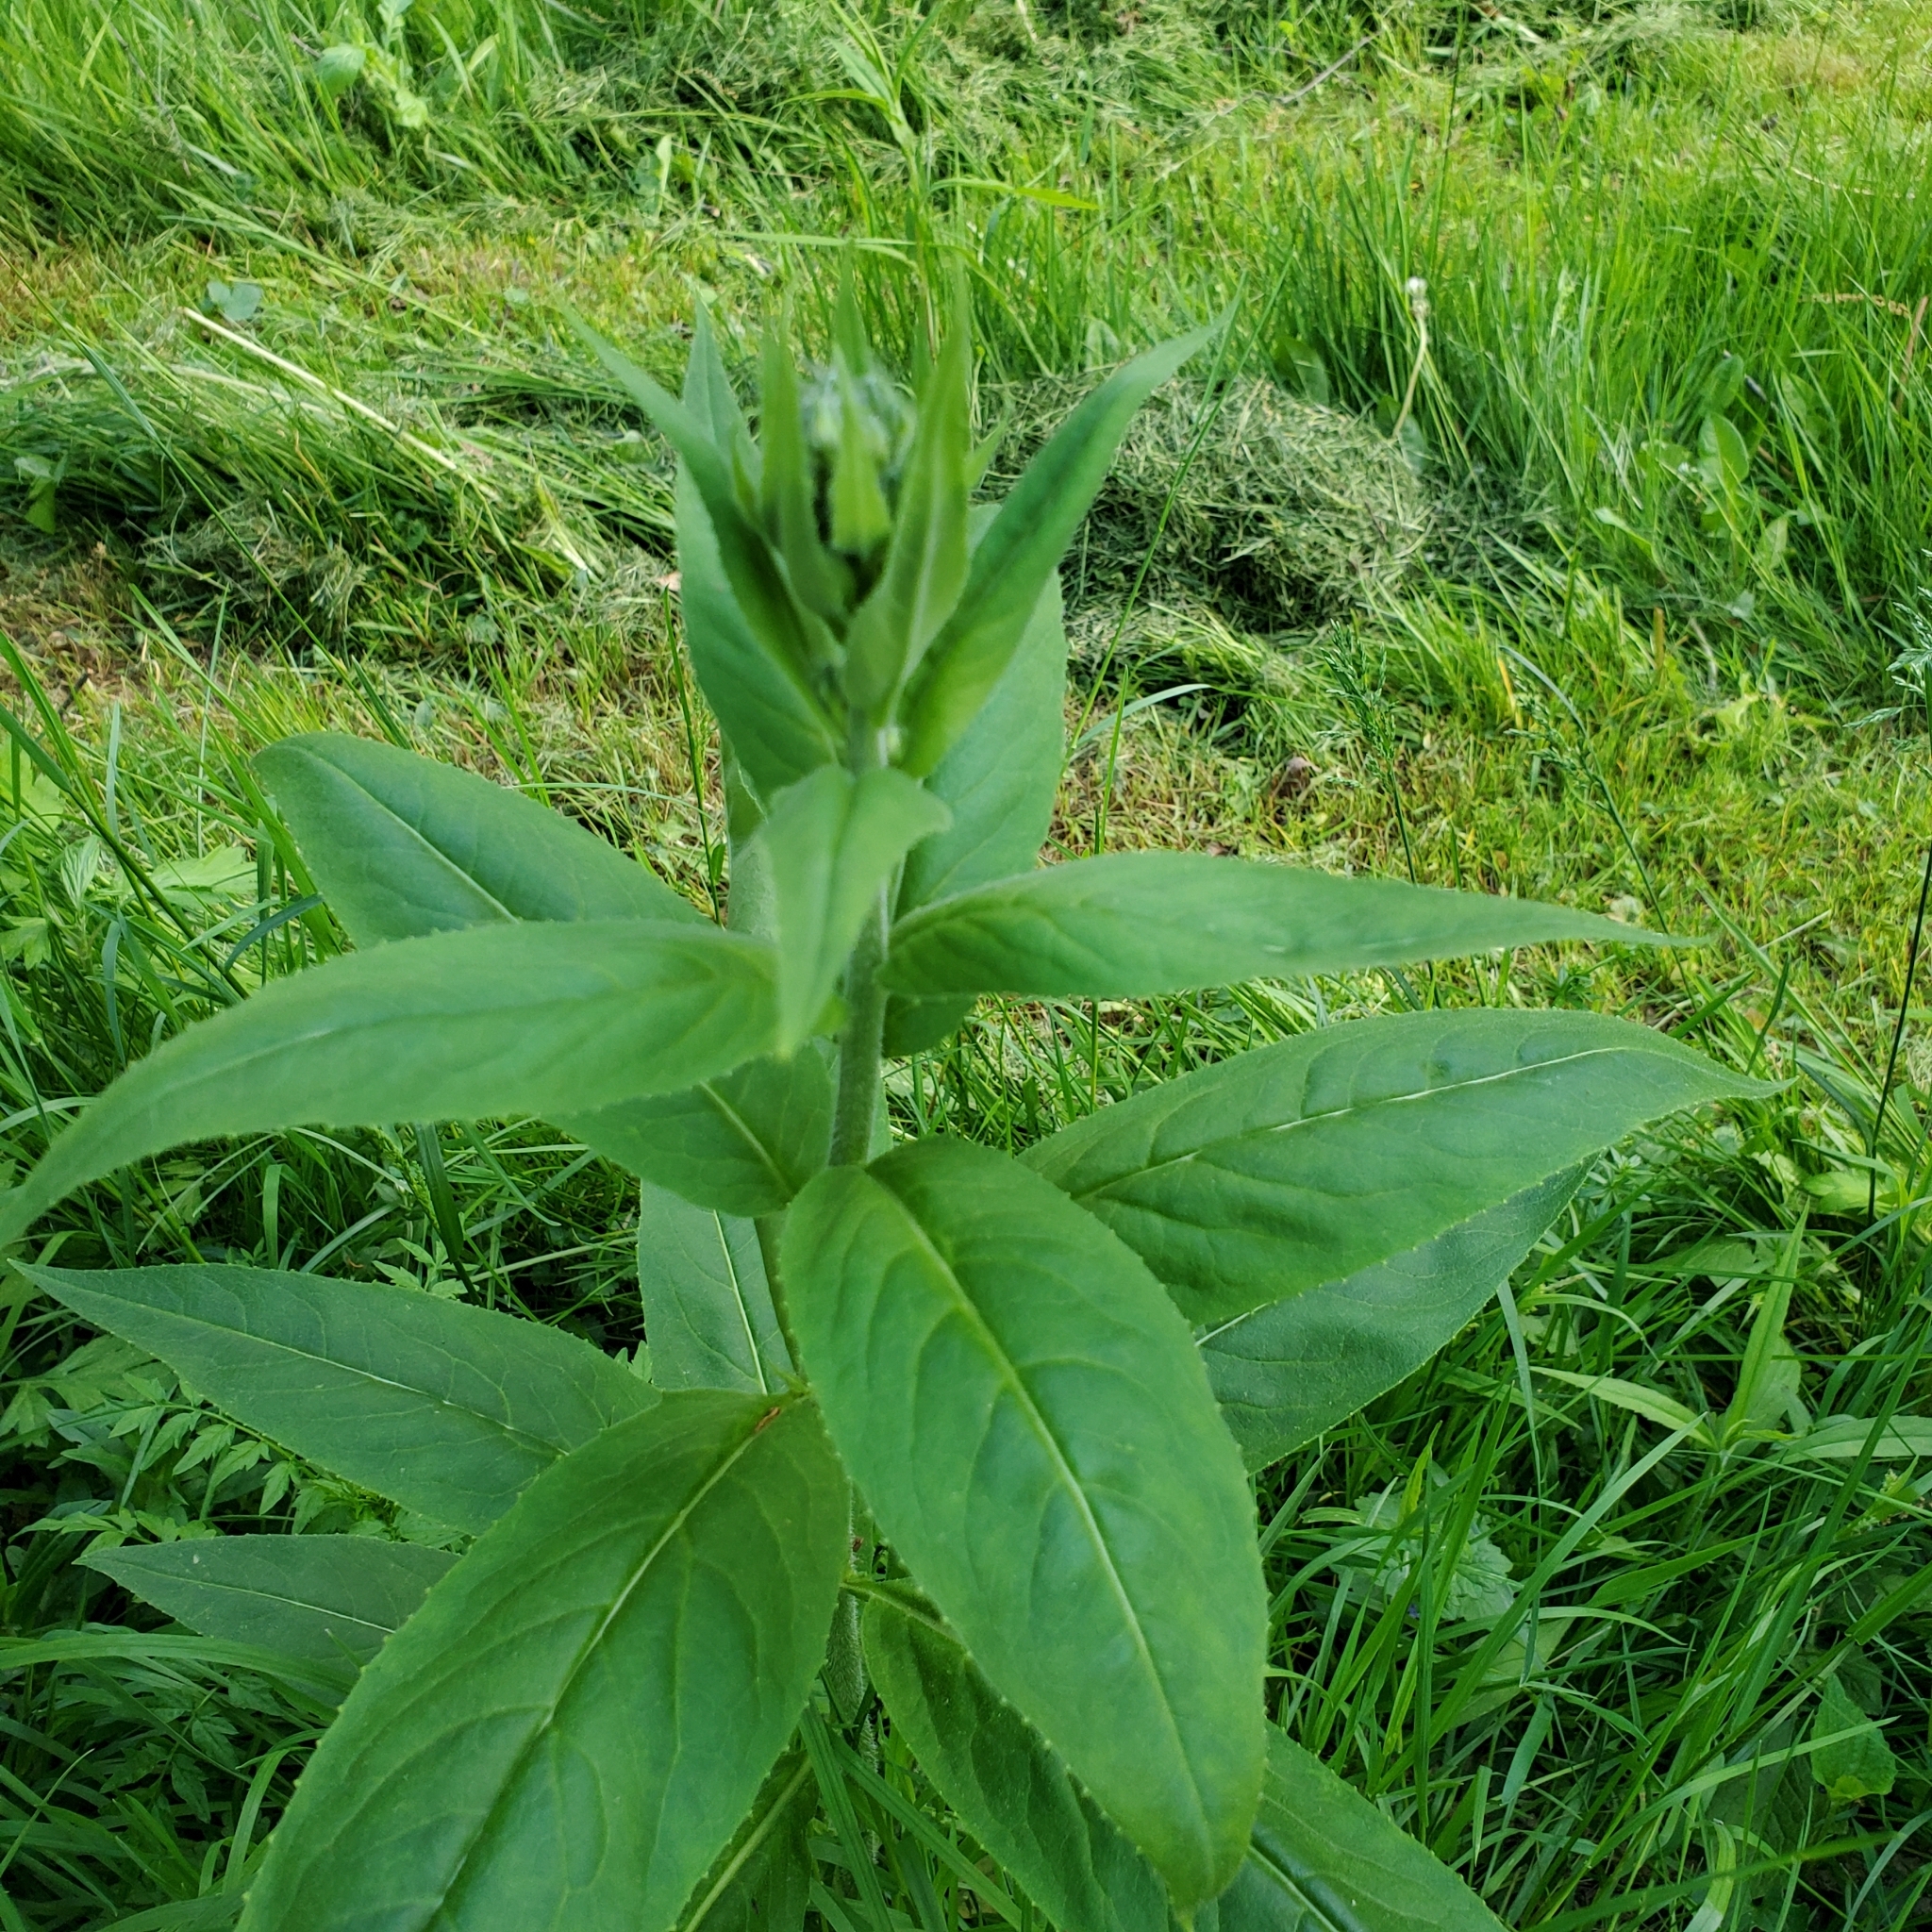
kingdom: Plantae
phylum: Tracheophyta
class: Magnoliopsida
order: Brassicales
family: Brassicaceae
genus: Hesperis
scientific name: Hesperis matronalis
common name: Dame's-violet
